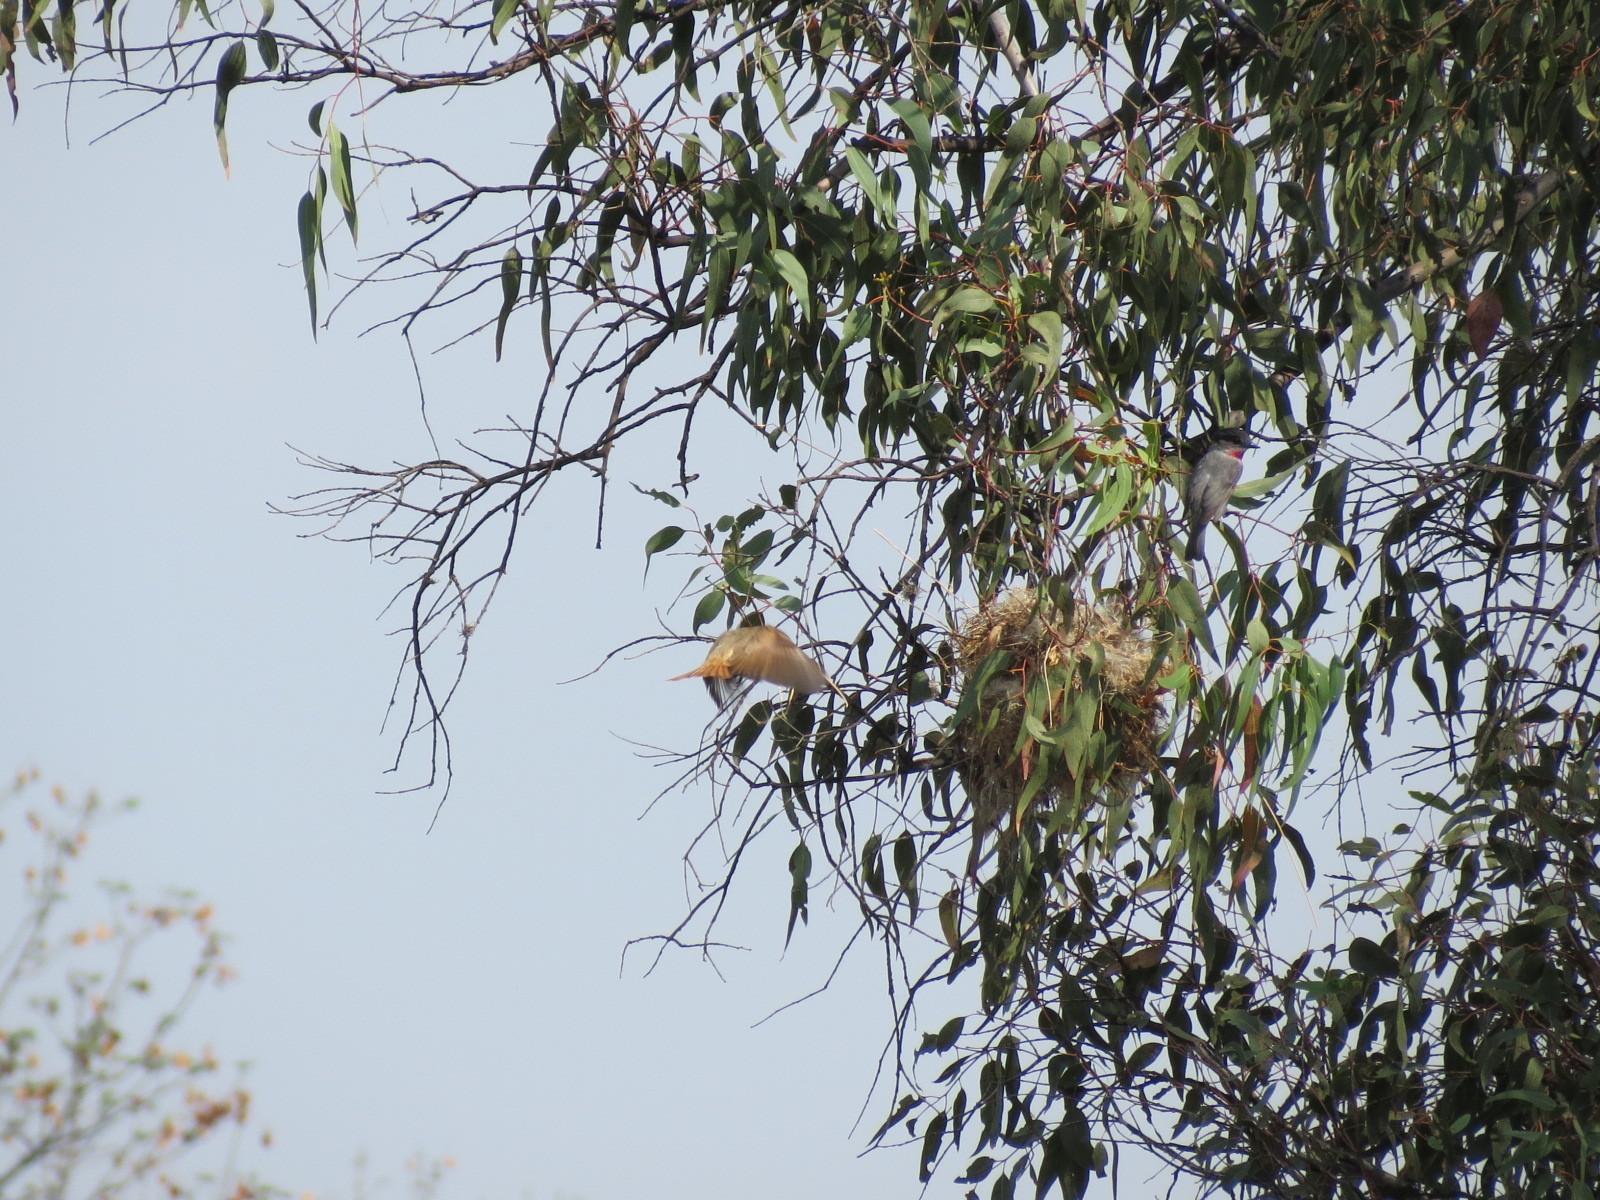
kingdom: Animalia
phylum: Chordata
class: Aves
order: Passeriformes
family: Cotingidae
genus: Pachyramphus
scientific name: Pachyramphus aglaiae
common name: Rose-throated becard
